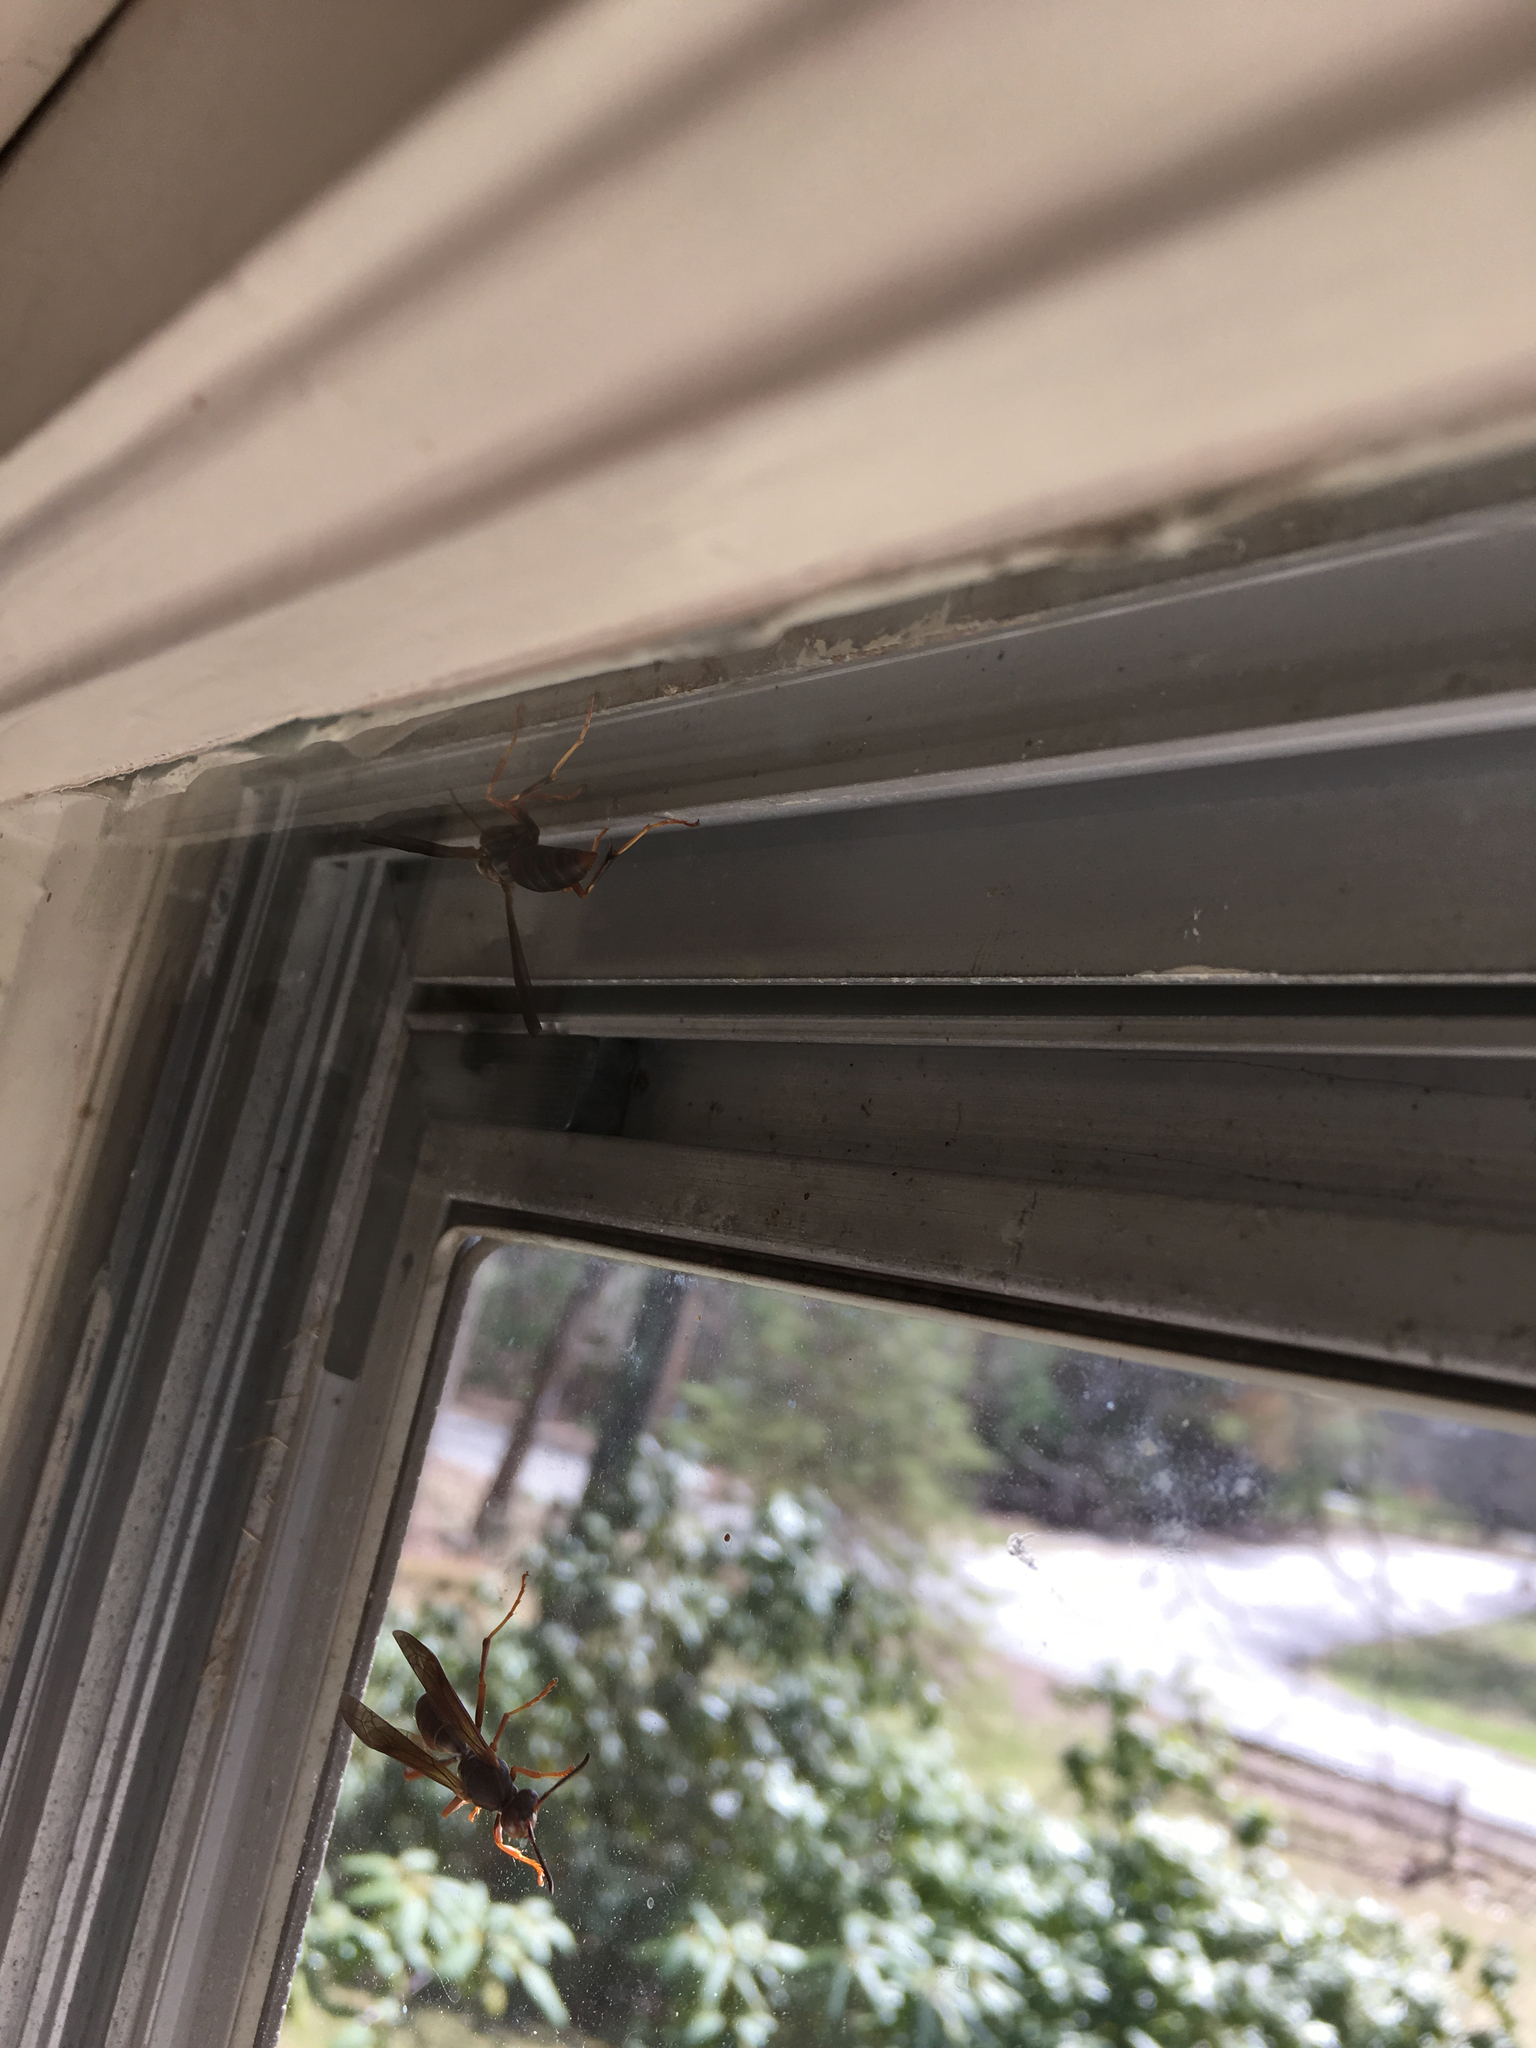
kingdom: Animalia
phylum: Arthropoda
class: Insecta
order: Hymenoptera
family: Eumenidae
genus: Polistes
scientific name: Polistes fuscatus
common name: Dark paper wasp
